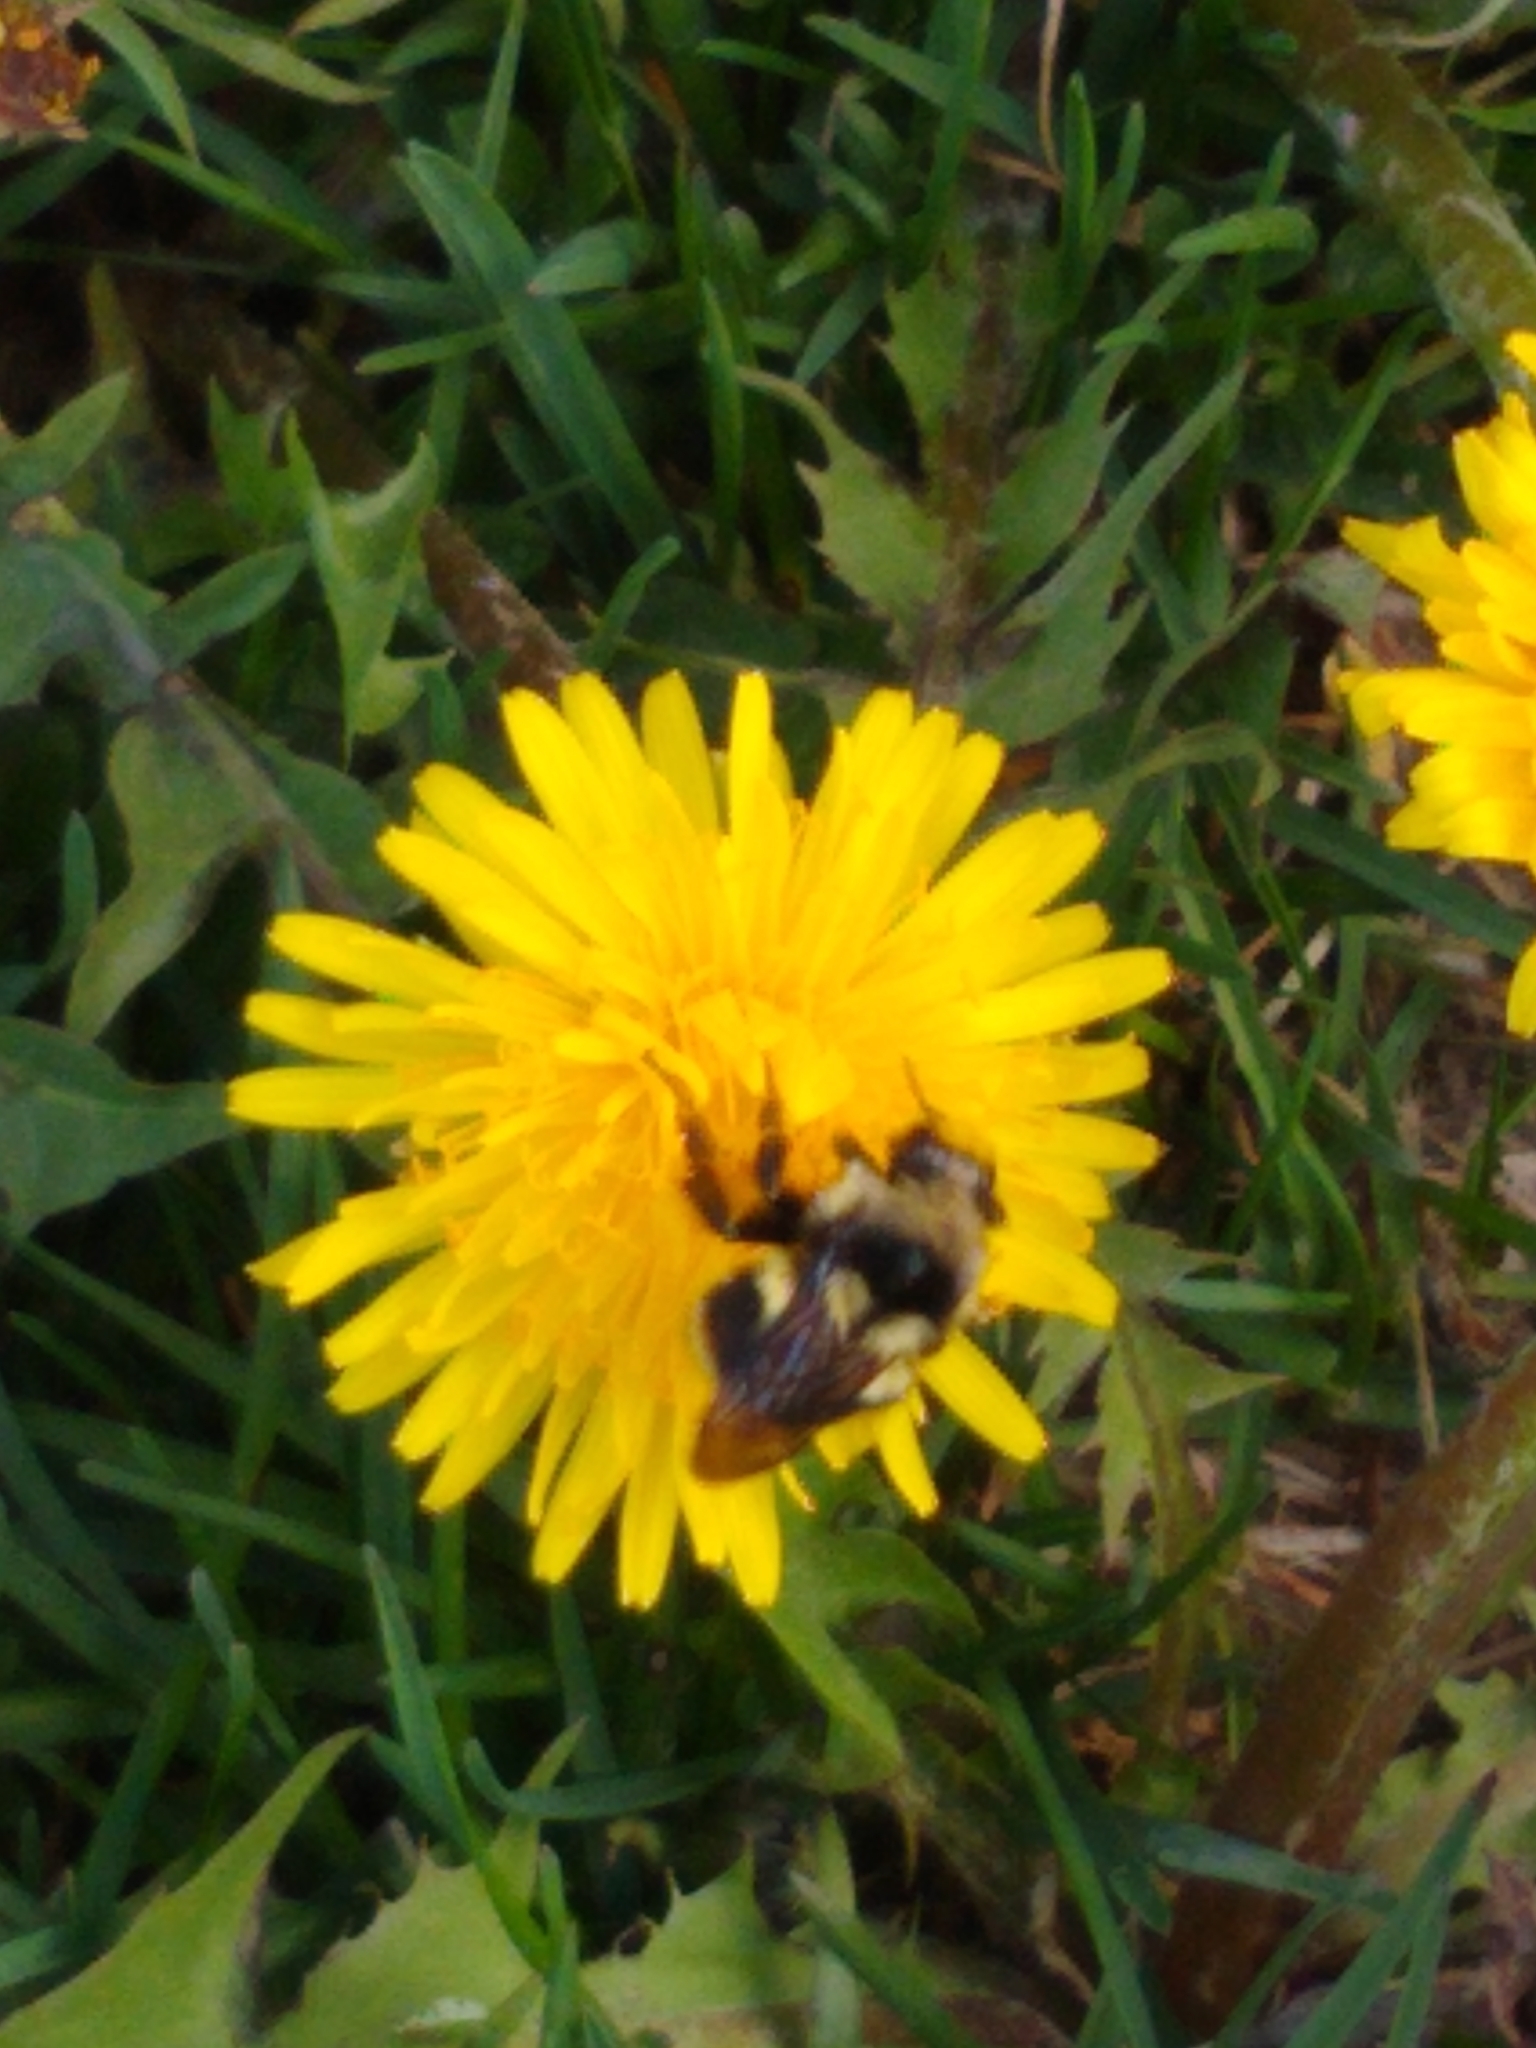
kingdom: Animalia
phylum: Arthropoda
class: Insecta
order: Hymenoptera
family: Apidae
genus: Bombus
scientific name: Bombus vancouverensis
